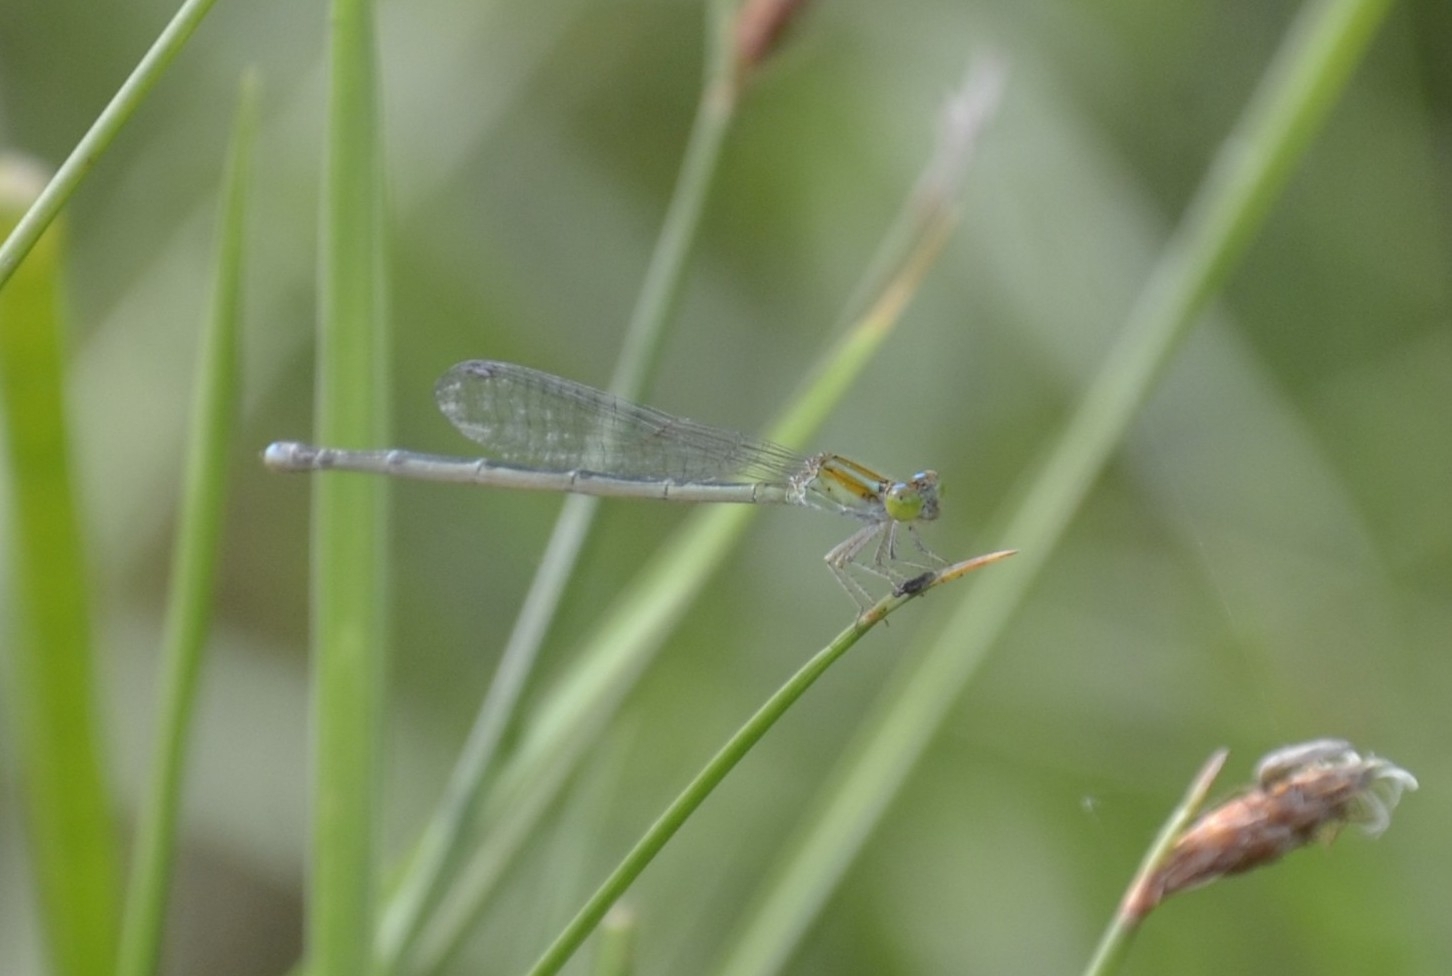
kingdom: Animalia
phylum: Arthropoda
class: Insecta
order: Odonata
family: Coenagrionidae
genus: Pseudagrion
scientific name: Pseudagrion microcephalum
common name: Blue riverdamsel
